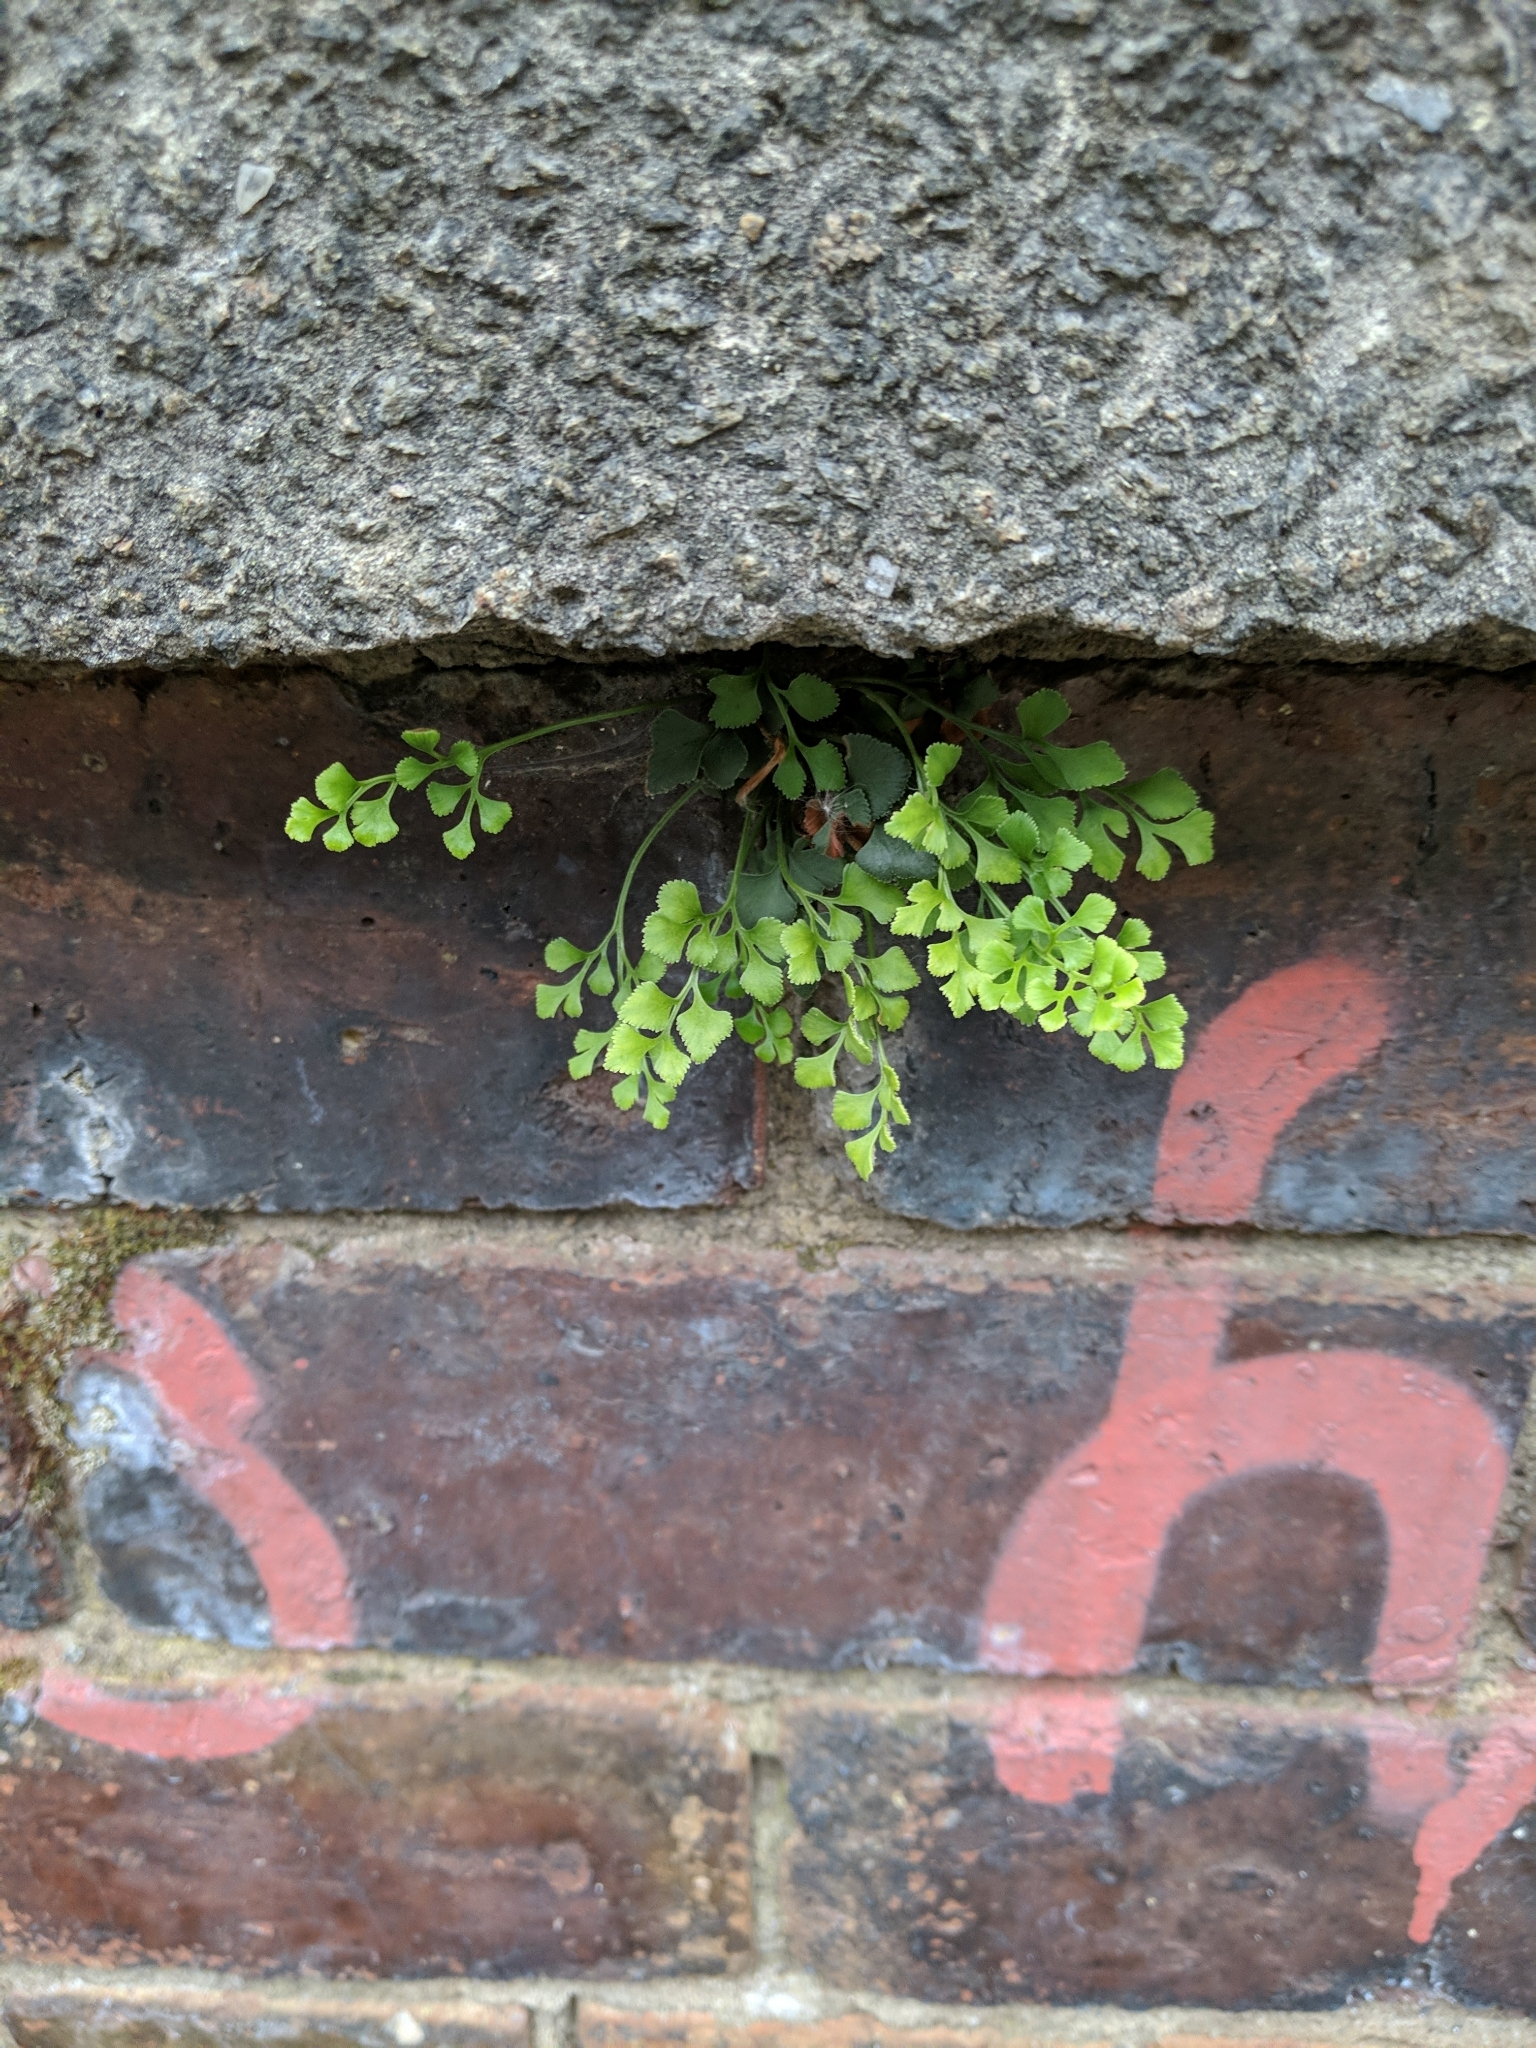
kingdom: Plantae
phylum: Tracheophyta
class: Polypodiopsida
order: Polypodiales
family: Aspleniaceae
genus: Asplenium
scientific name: Asplenium ruta-muraria
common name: Wall-rue
